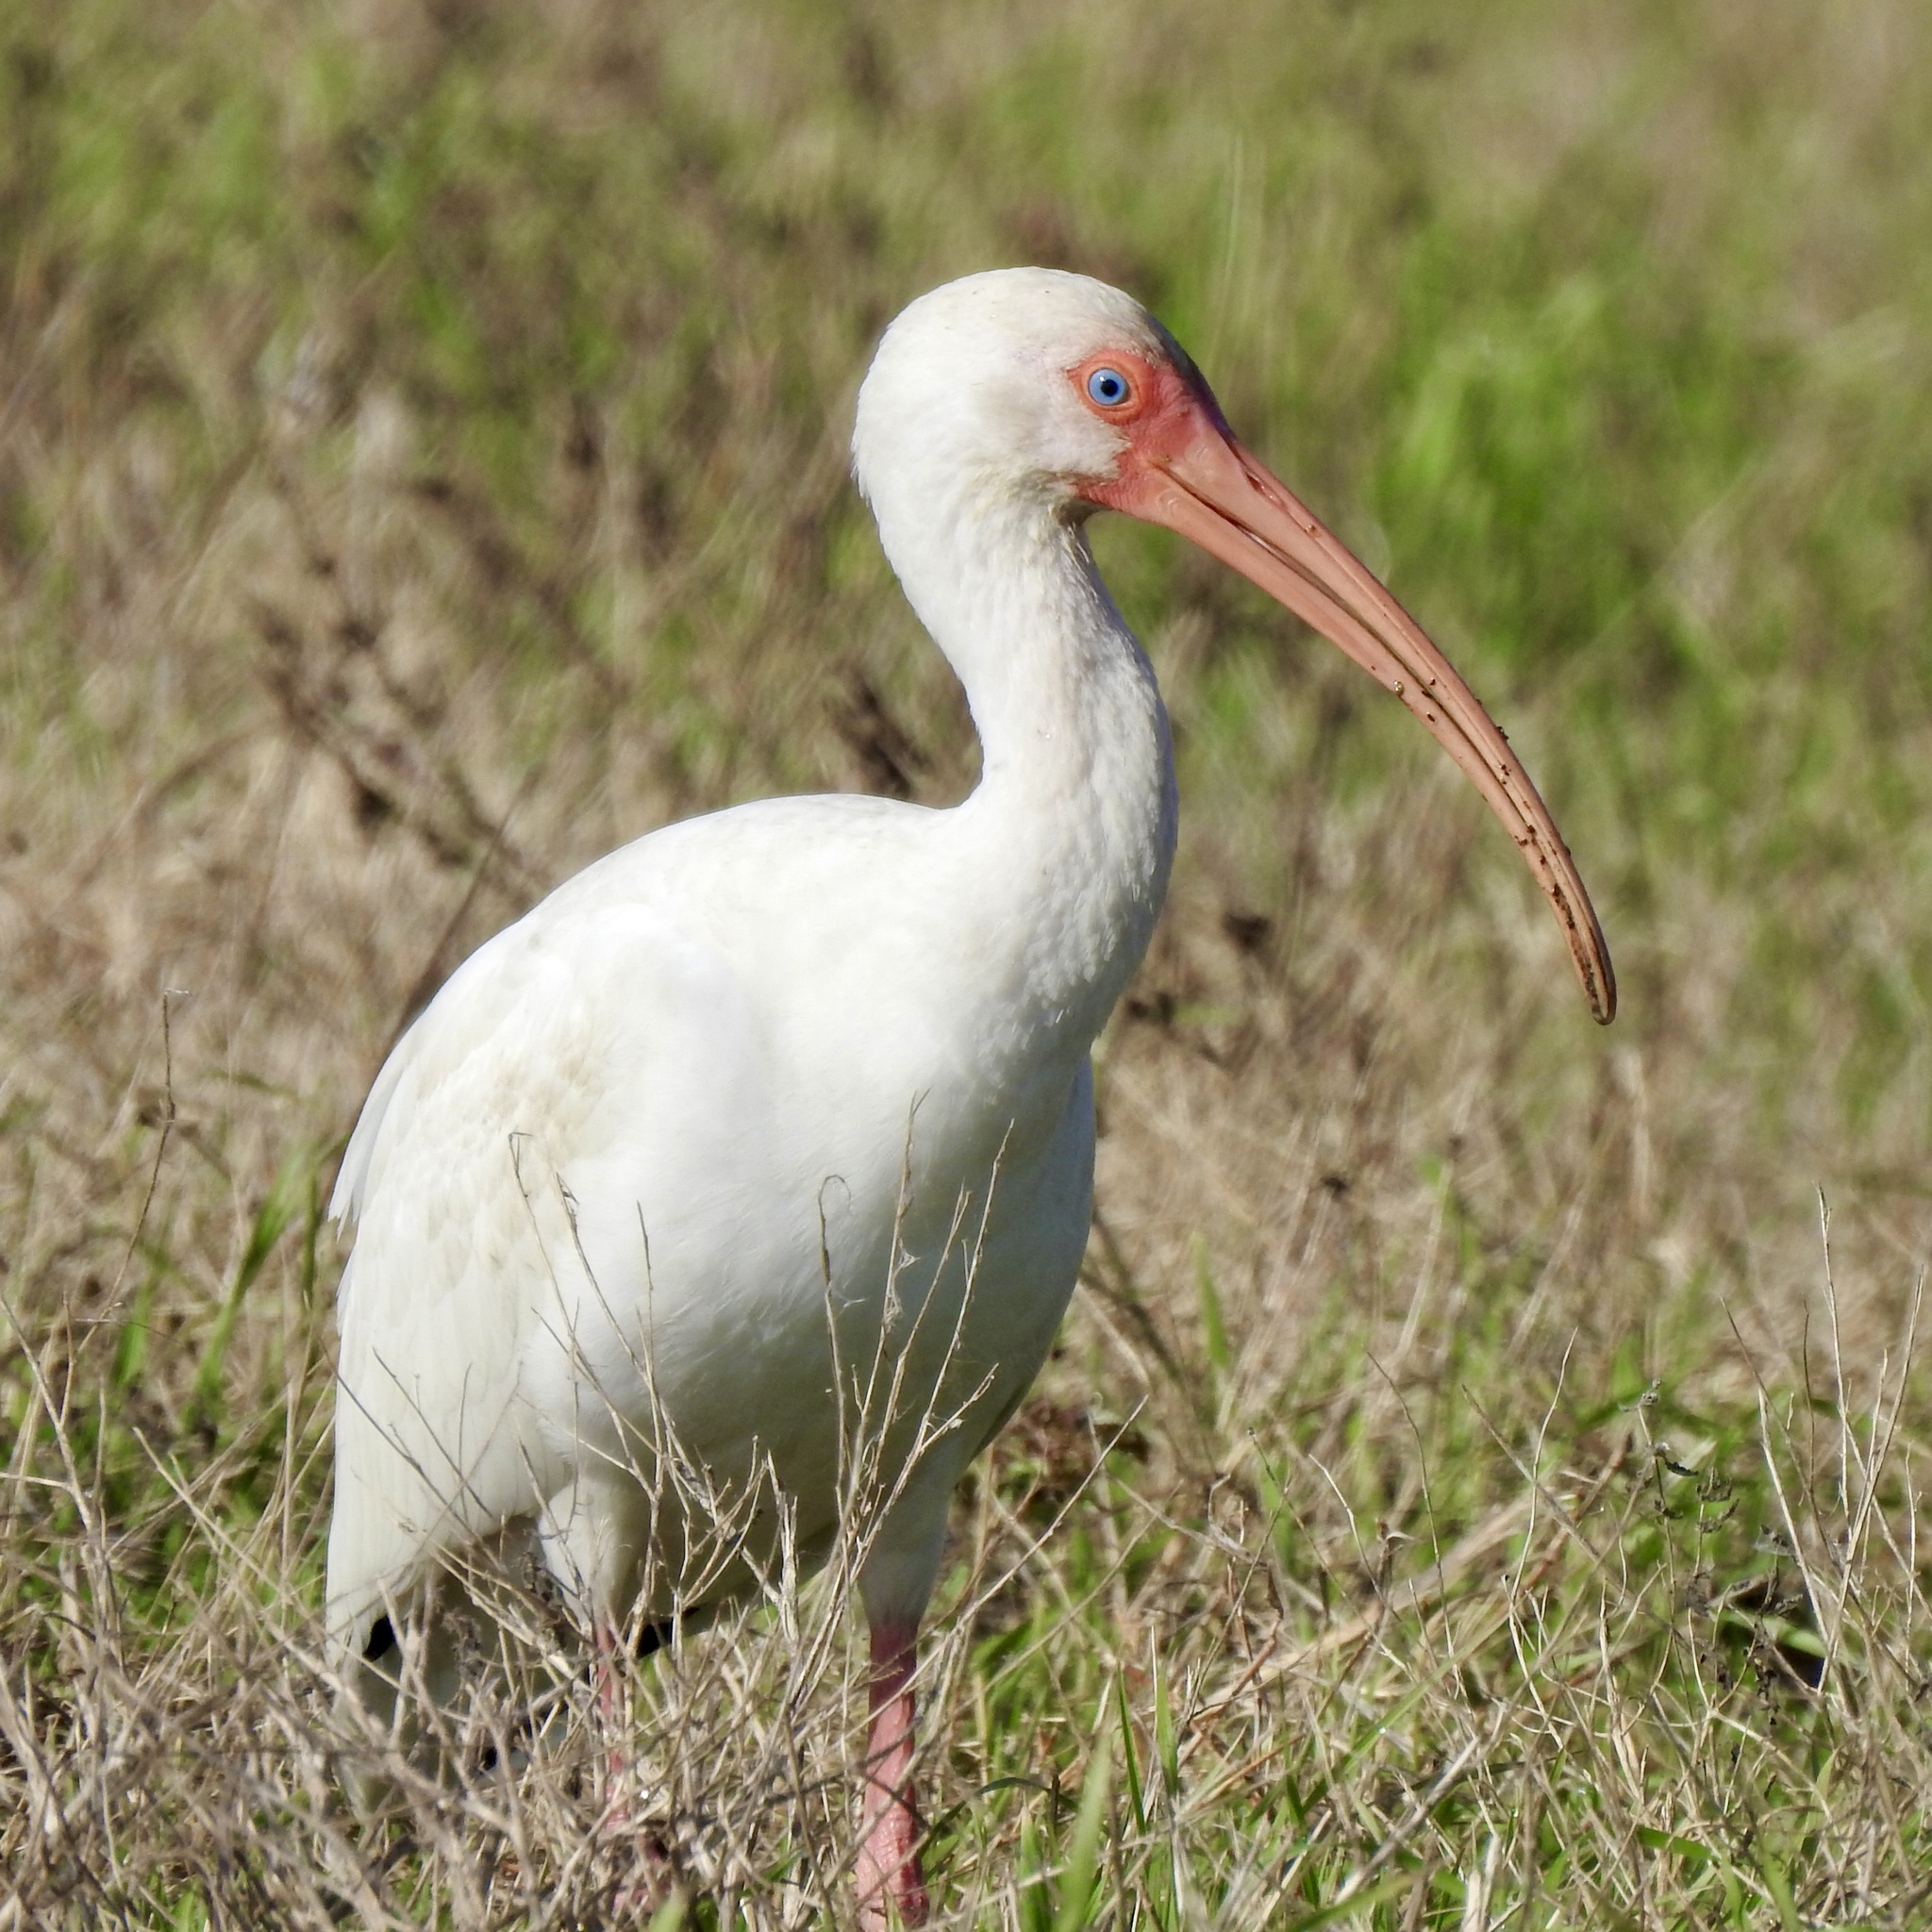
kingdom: Animalia
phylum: Chordata
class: Aves
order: Pelecaniformes
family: Threskiornithidae
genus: Eudocimus
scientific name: Eudocimus albus
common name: White ibis
